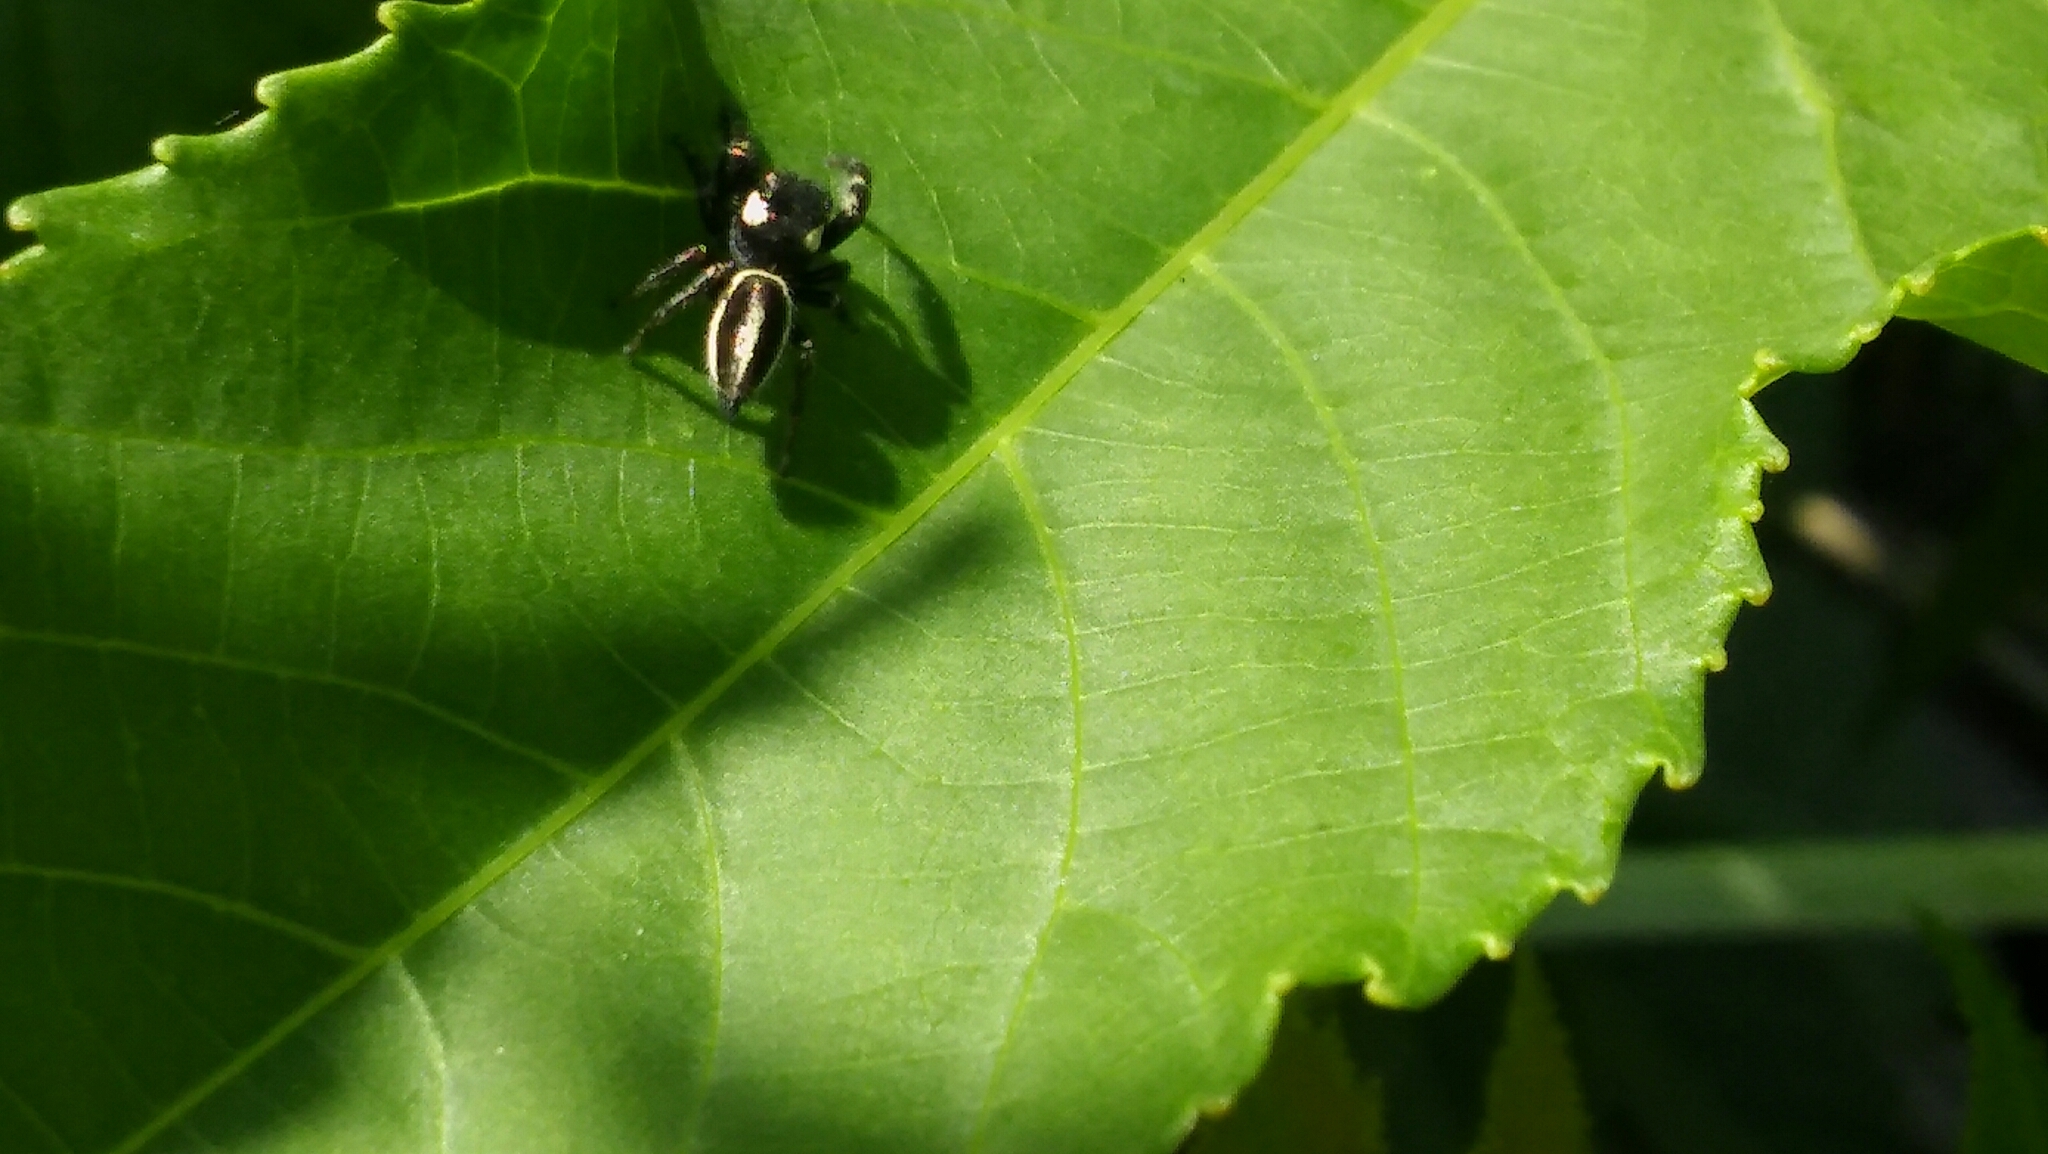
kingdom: Animalia
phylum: Arthropoda
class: Arachnida
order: Araneae
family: Salticidae
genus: Dendryphantes
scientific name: Dendryphantes mordax
